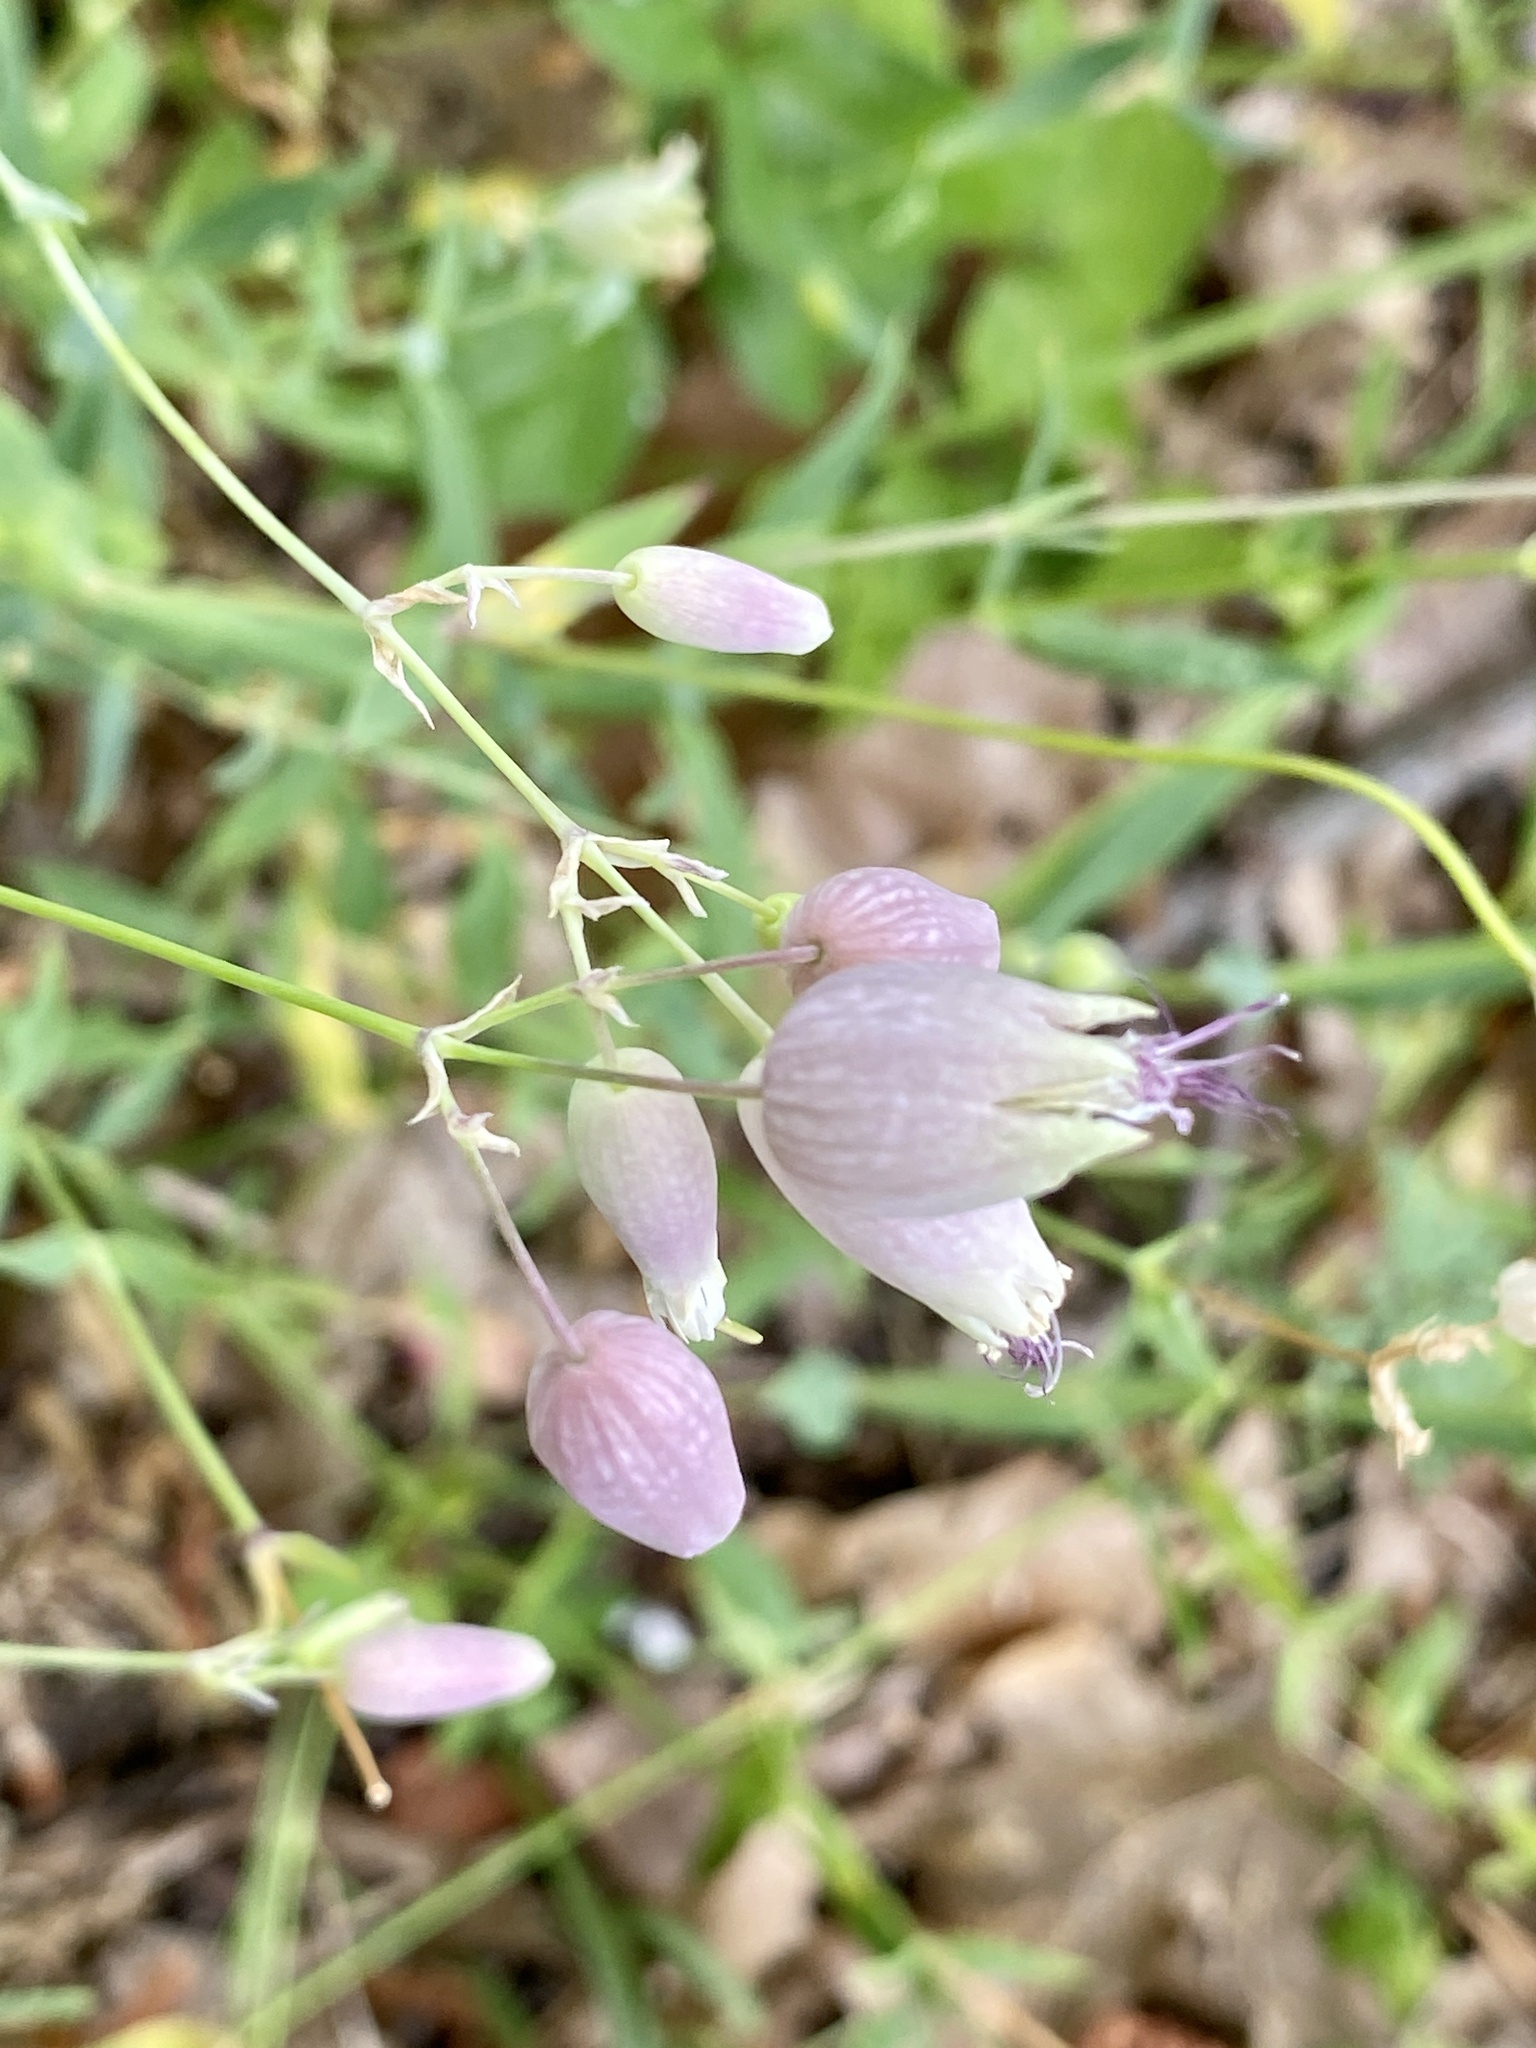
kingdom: Plantae
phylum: Tracheophyta
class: Magnoliopsida
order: Caryophyllales
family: Caryophyllaceae
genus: Silene
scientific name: Silene vulgaris
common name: Bladder campion
